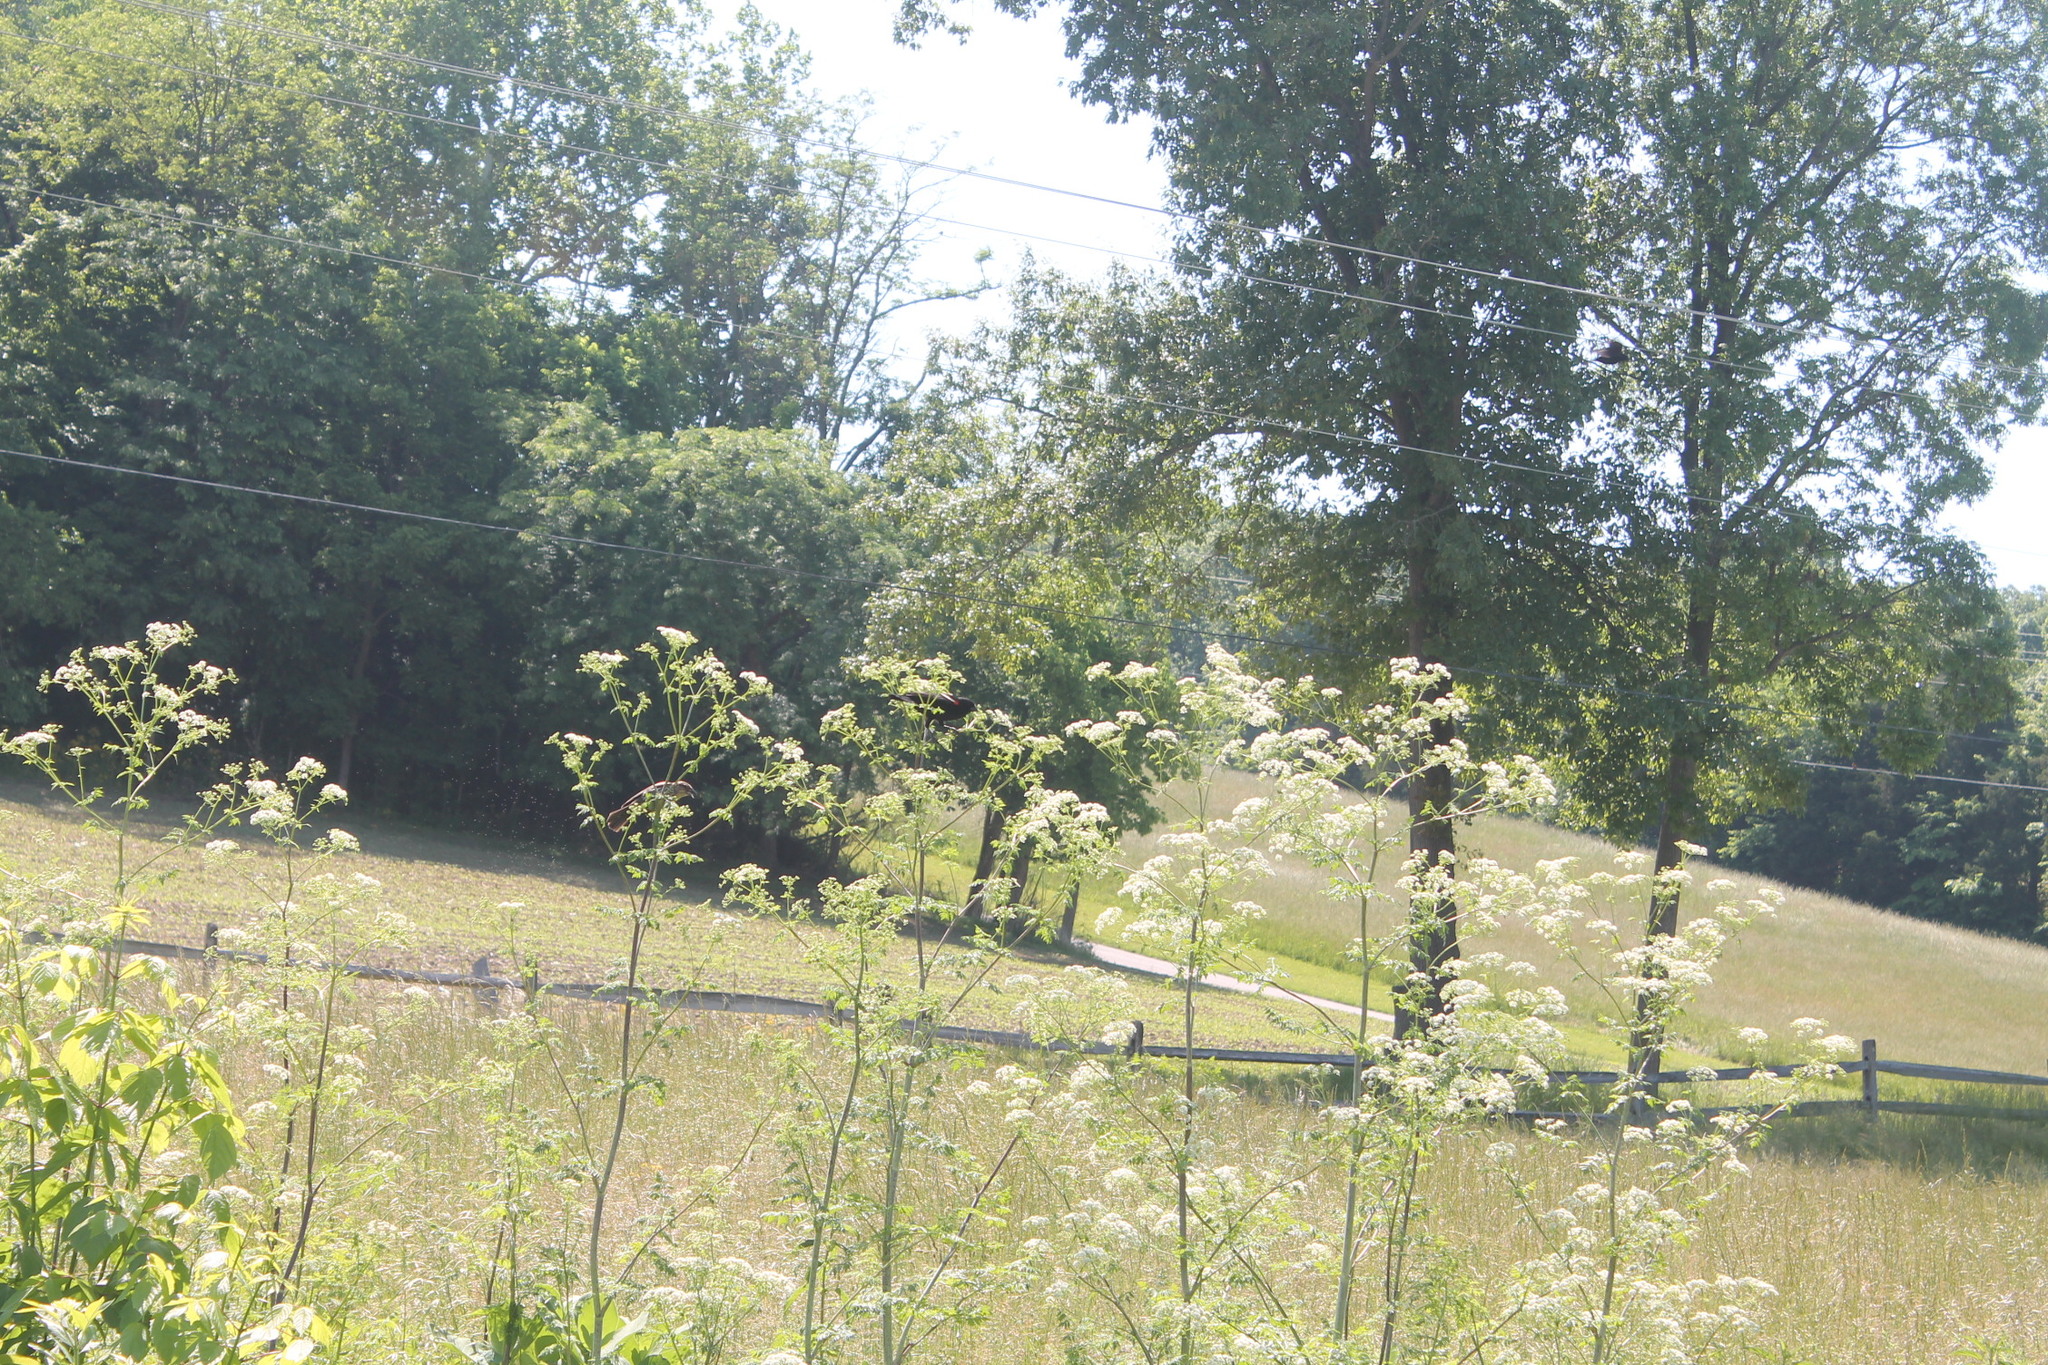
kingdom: Animalia
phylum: Chordata
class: Aves
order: Passeriformes
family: Icteridae
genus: Agelaius
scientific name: Agelaius phoeniceus
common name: Red-winged blackbird
